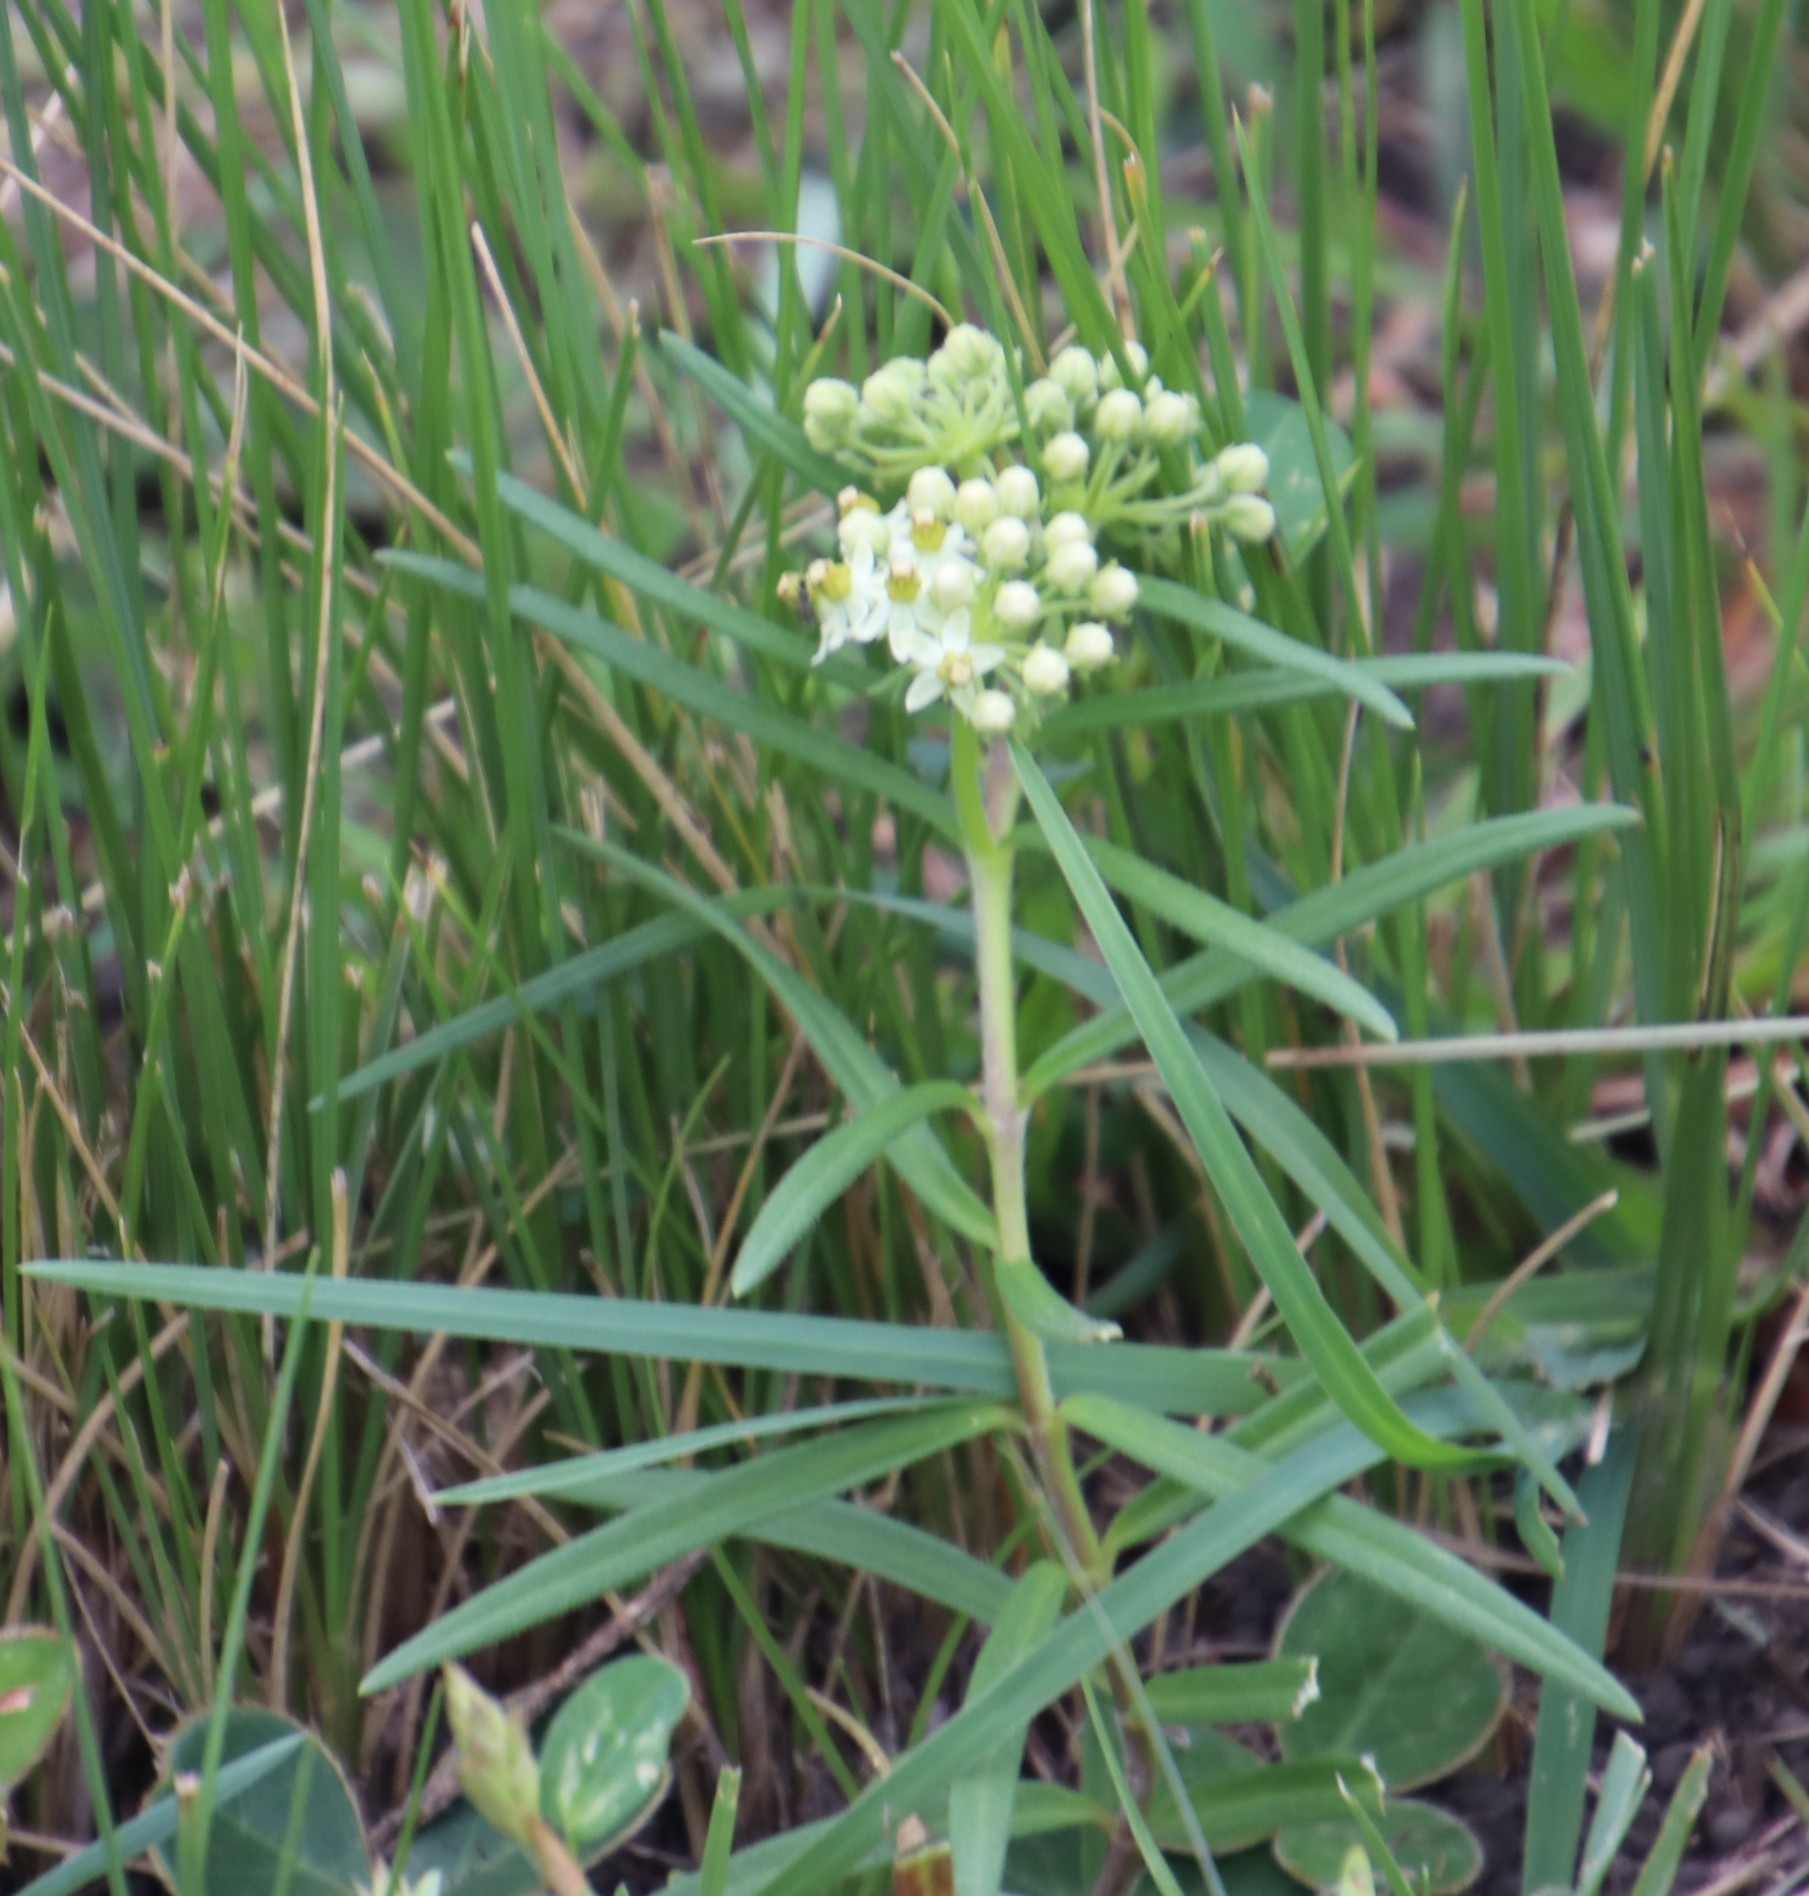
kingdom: Plantae
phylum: Tracheophyta
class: Magnoliopsida
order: Gentianales
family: Apocynaceae
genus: Xysmalobium
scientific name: Xysmalobium involucratum
